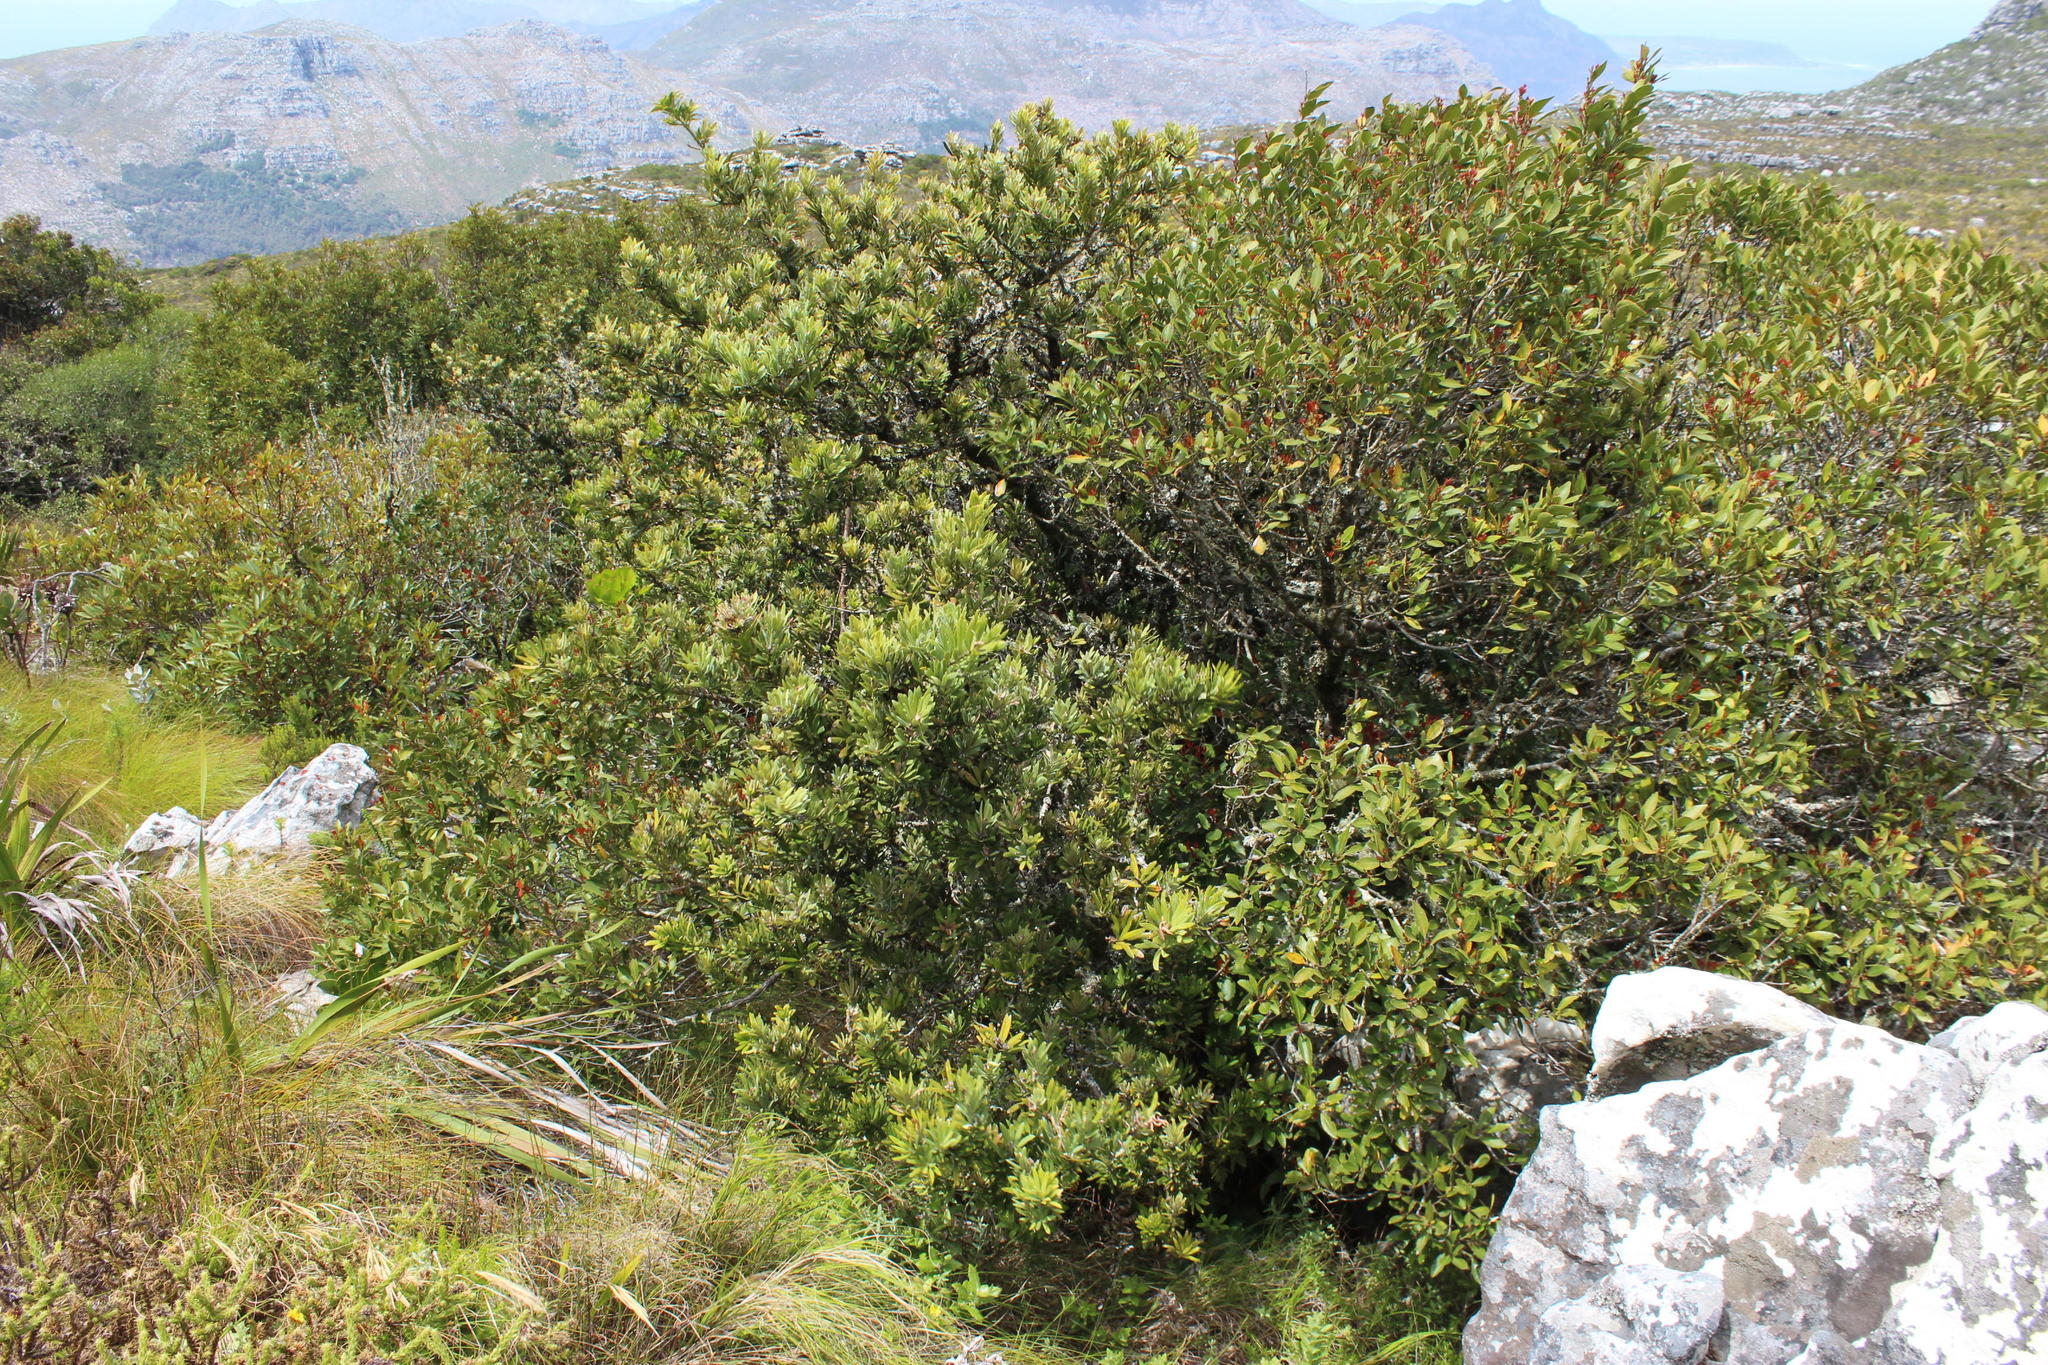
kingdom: Plantae
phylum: Tracheophyta
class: Pinopsida
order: Pinales
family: Podocarpaceae
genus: Podocarpus
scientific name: Podocarpus latifolius
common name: True yellowwood
